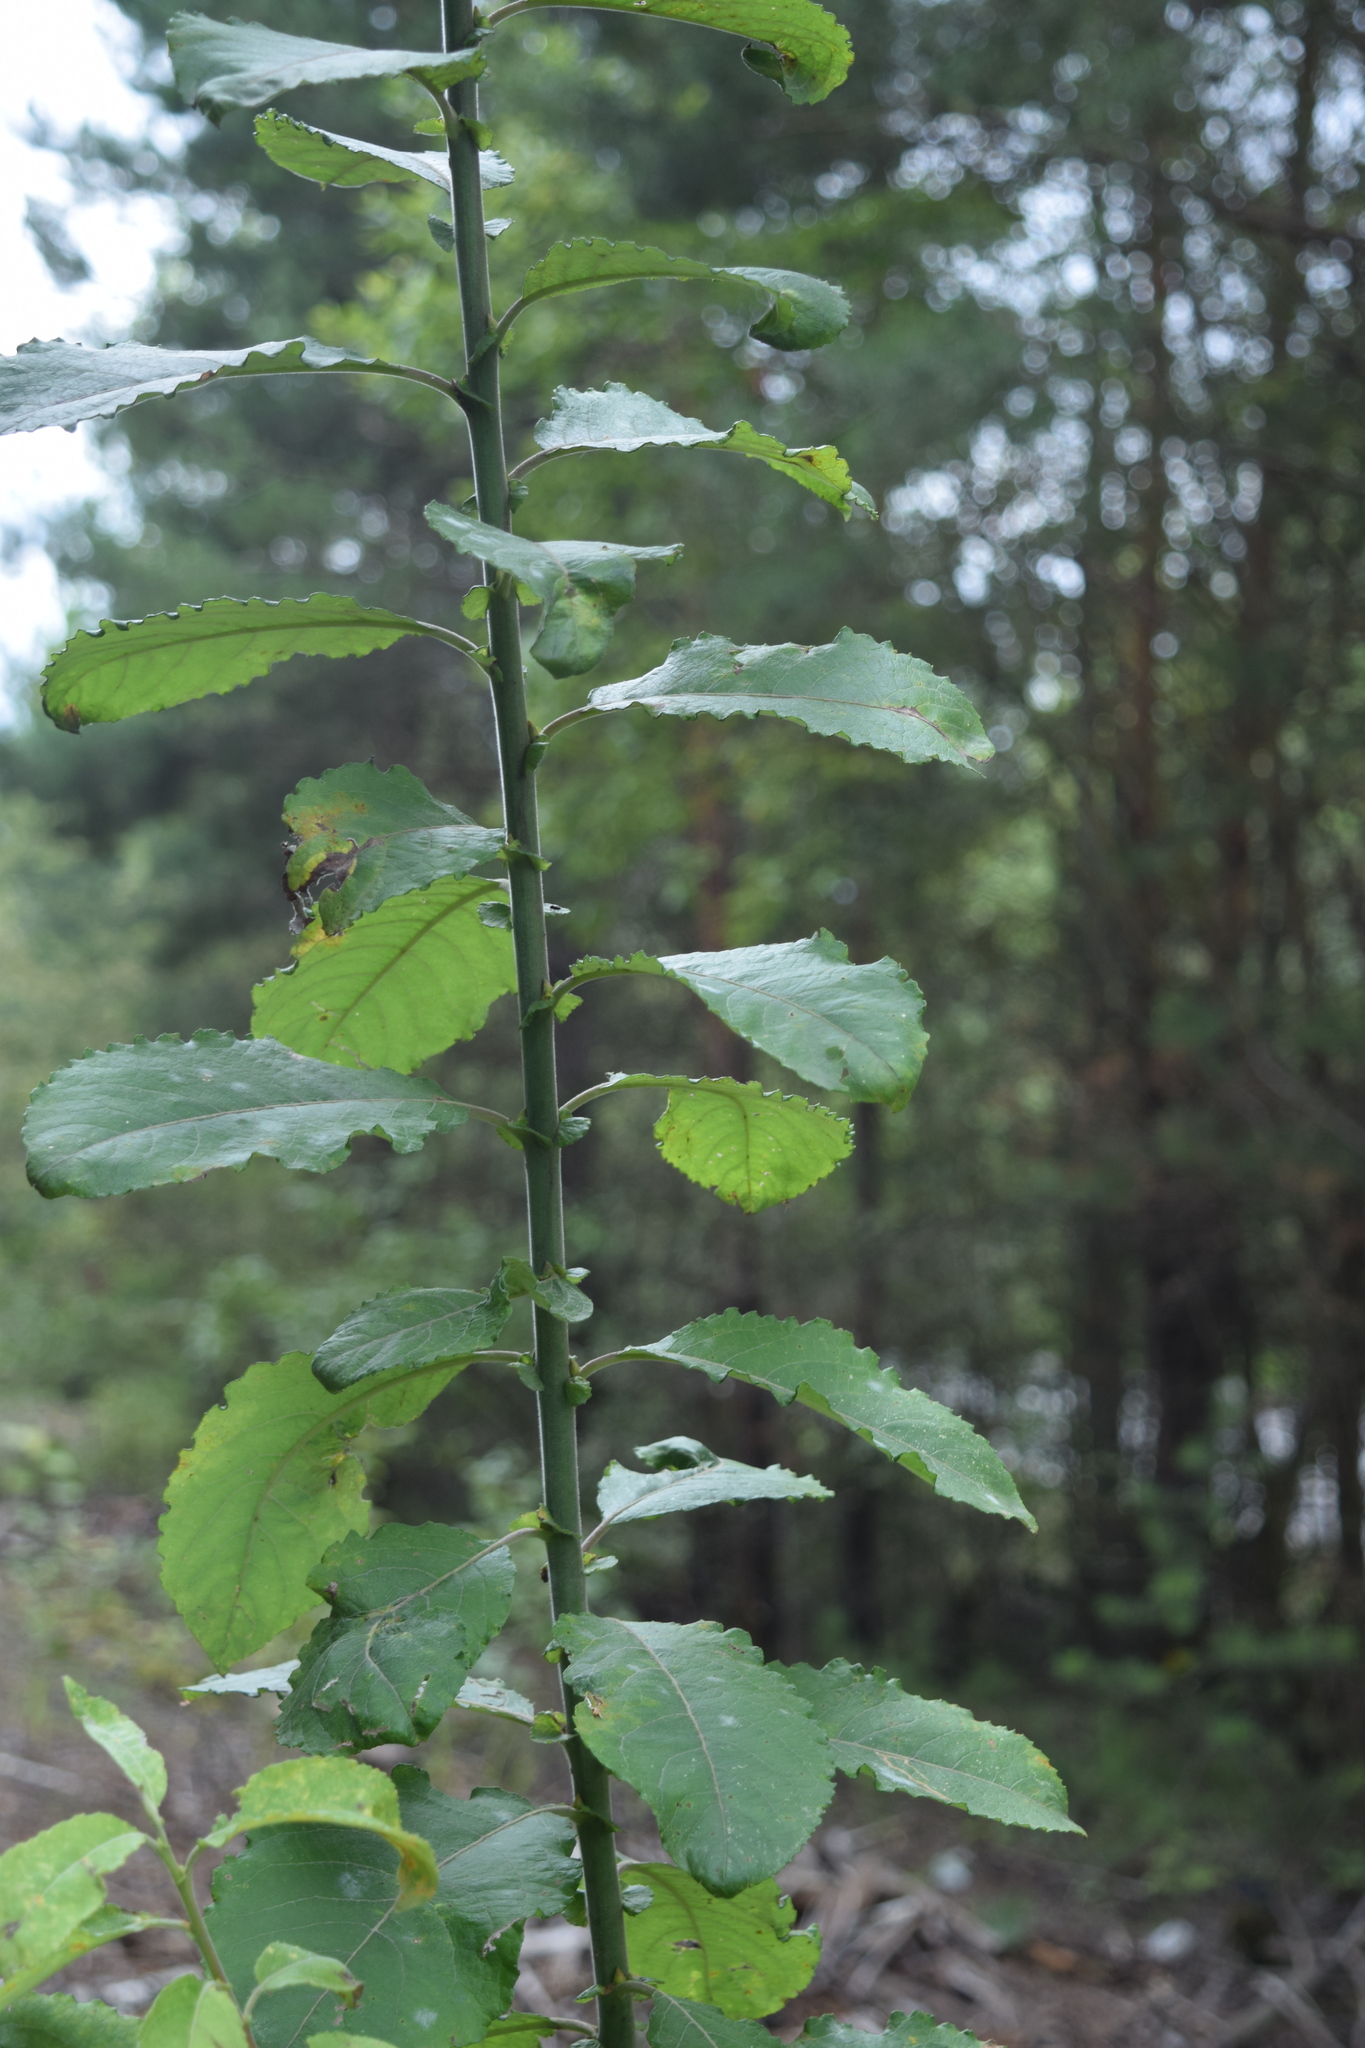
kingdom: Plantae
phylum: Tracheophyta
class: Magnoliopsida
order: Malpighiales
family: Salicaceae
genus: Salix
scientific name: Salix myrsinifolia
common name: Dark-leaved willow
